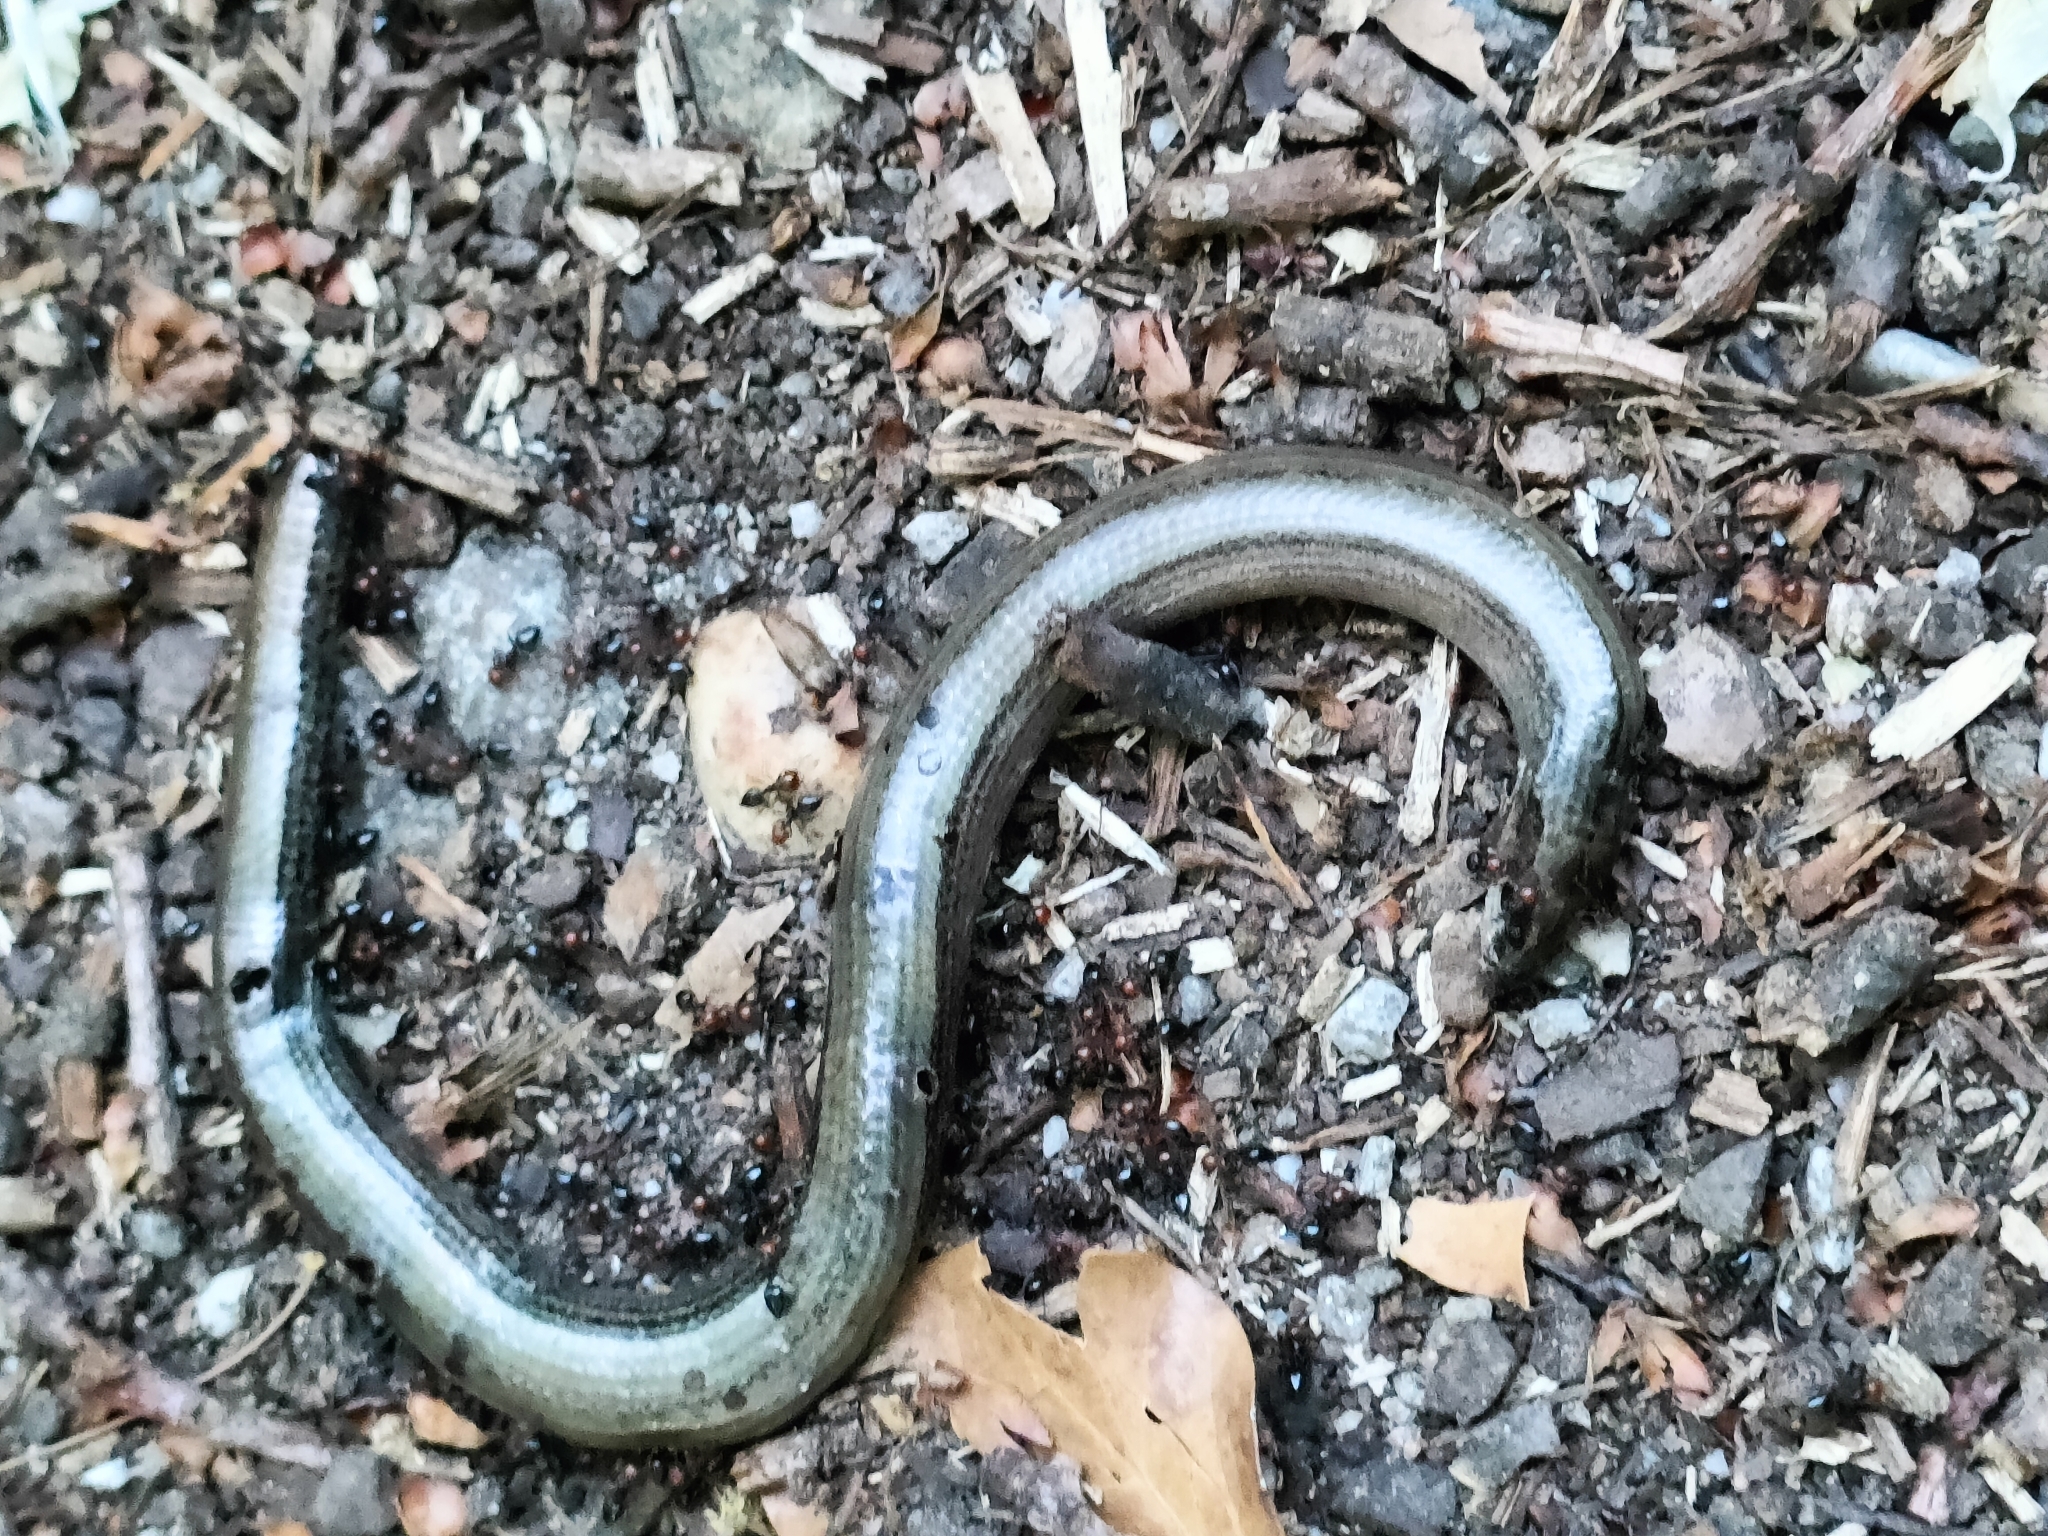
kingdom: Animalia
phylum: Chordata
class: Squamata
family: Anguidae
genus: Anguis
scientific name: Anguis veronensis
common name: Italian slow worm
